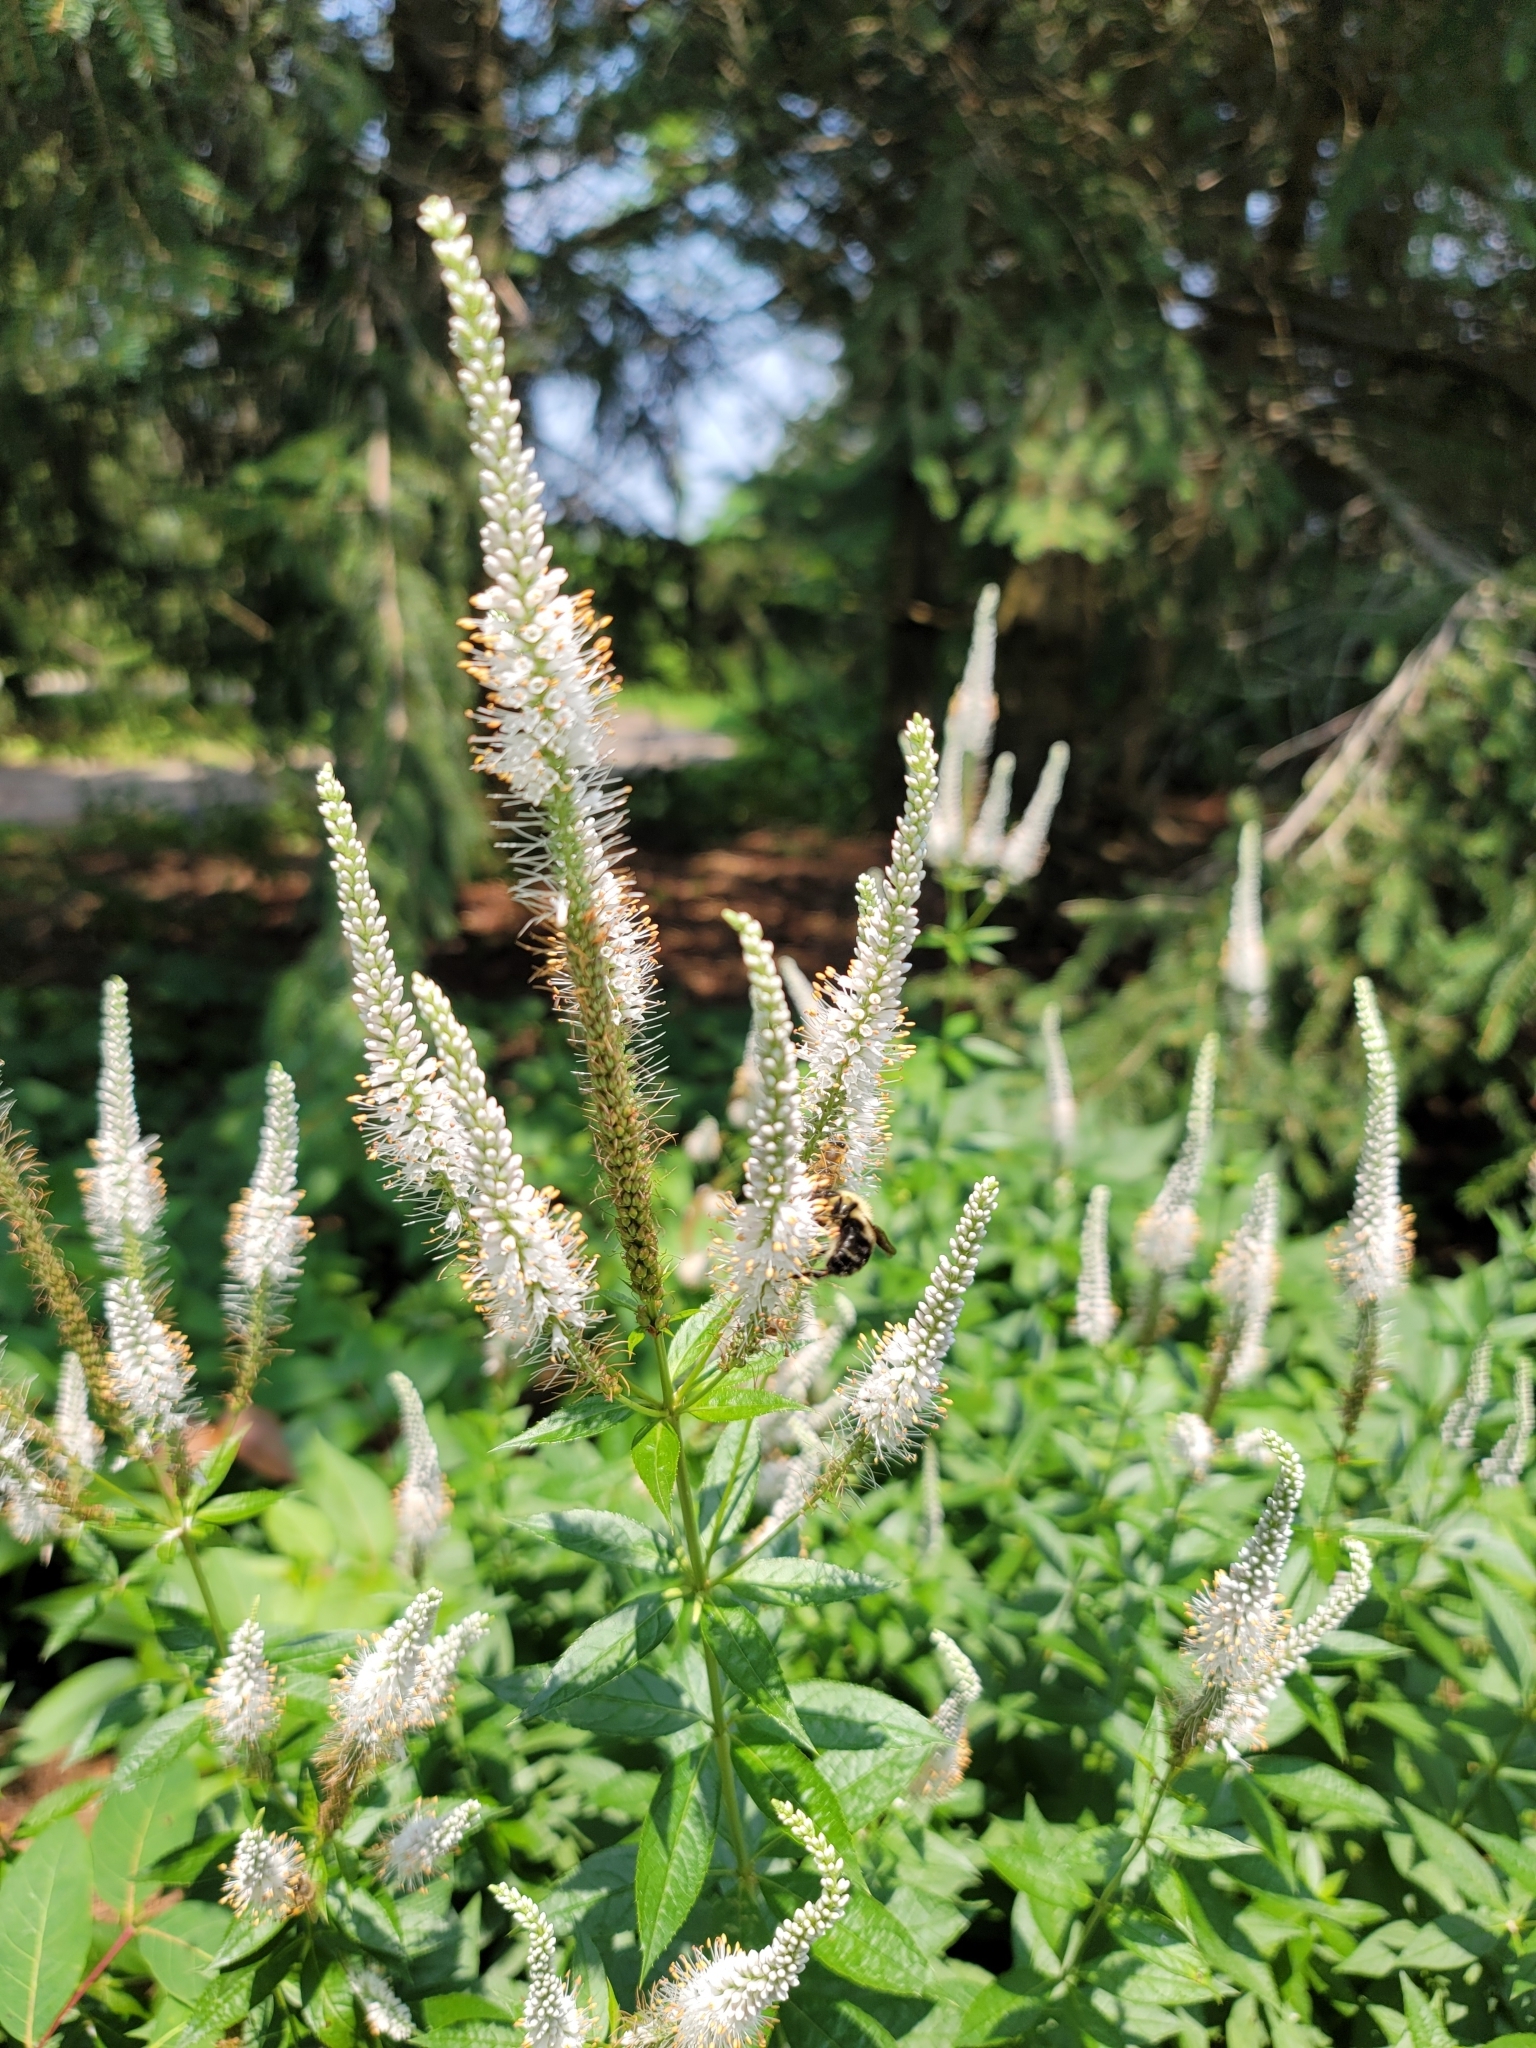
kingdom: Plantae
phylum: Tracheophyta
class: Magnoliopsida
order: Lamiales
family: Plantaginaceae
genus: Veronicastrum
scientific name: Veronicastrum virginicum
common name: Blackroot
